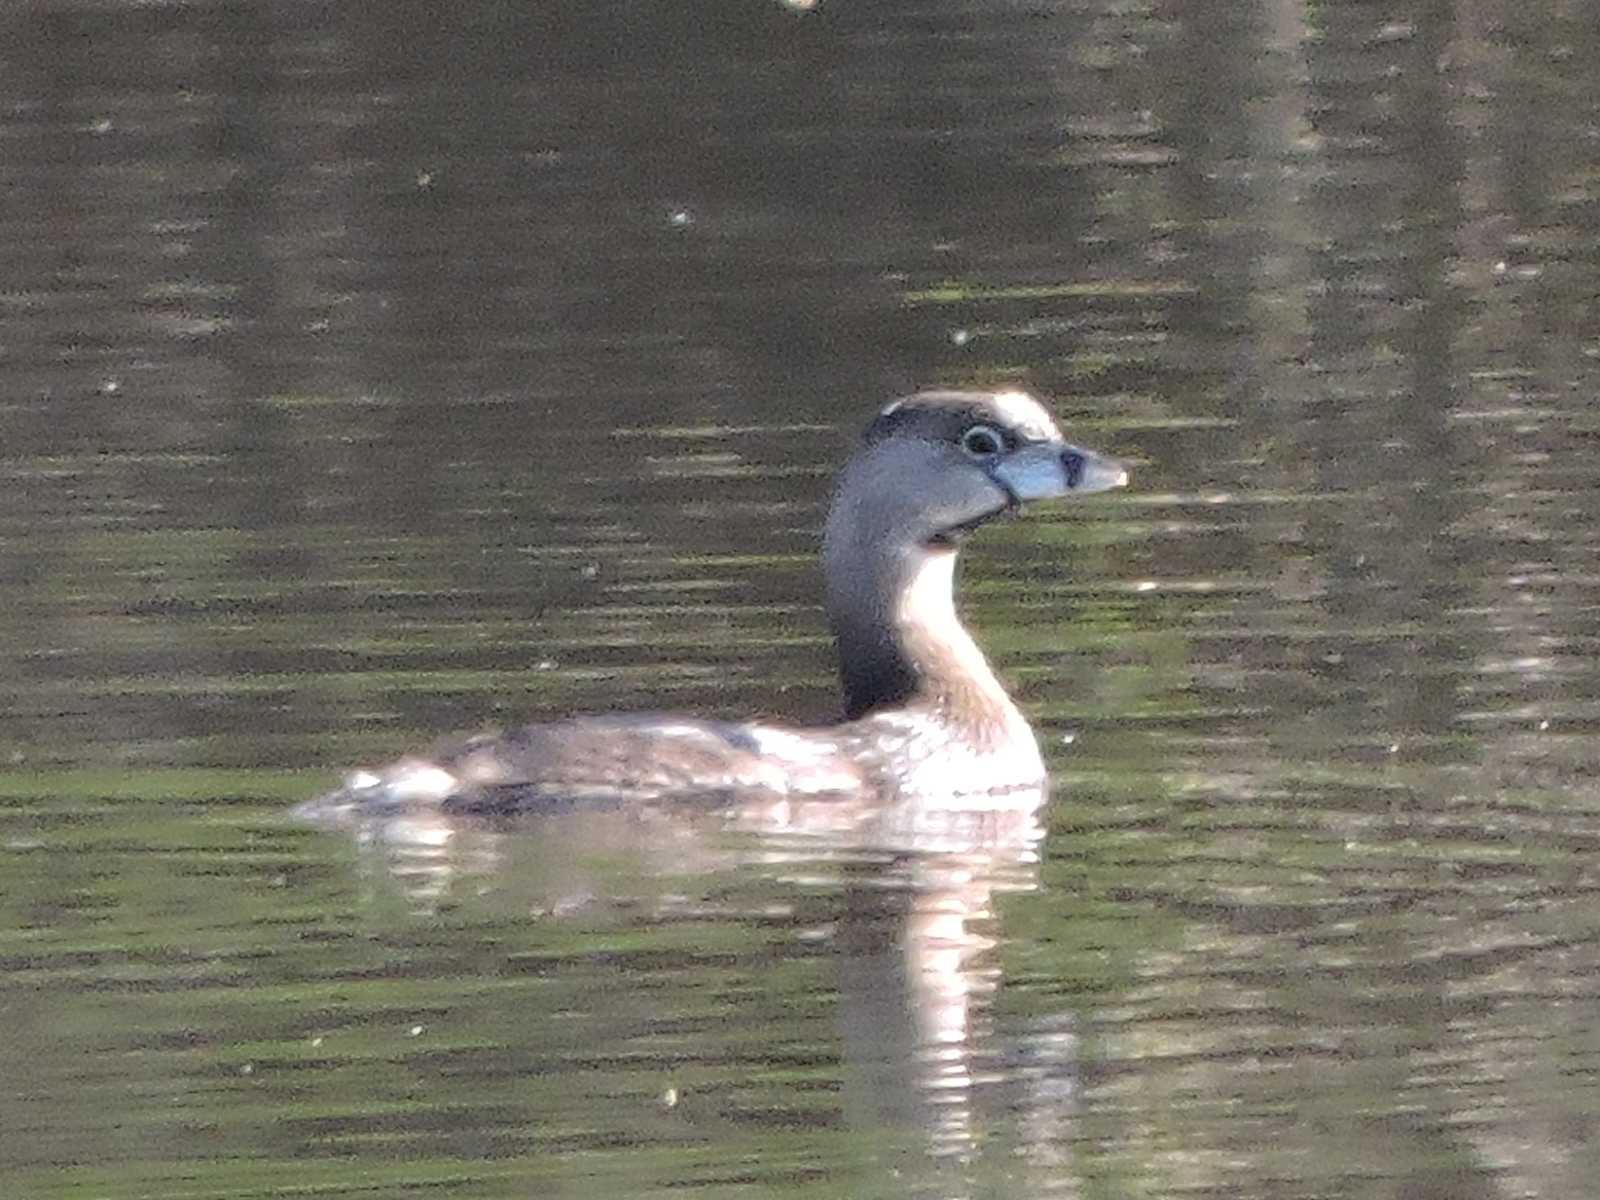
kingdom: Animalia
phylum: Chordata
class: Aves
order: Podicipediformes
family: Podicipedidae
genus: Podilymbus
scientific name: Podilymbus podiceps
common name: Pied-billed grebe
